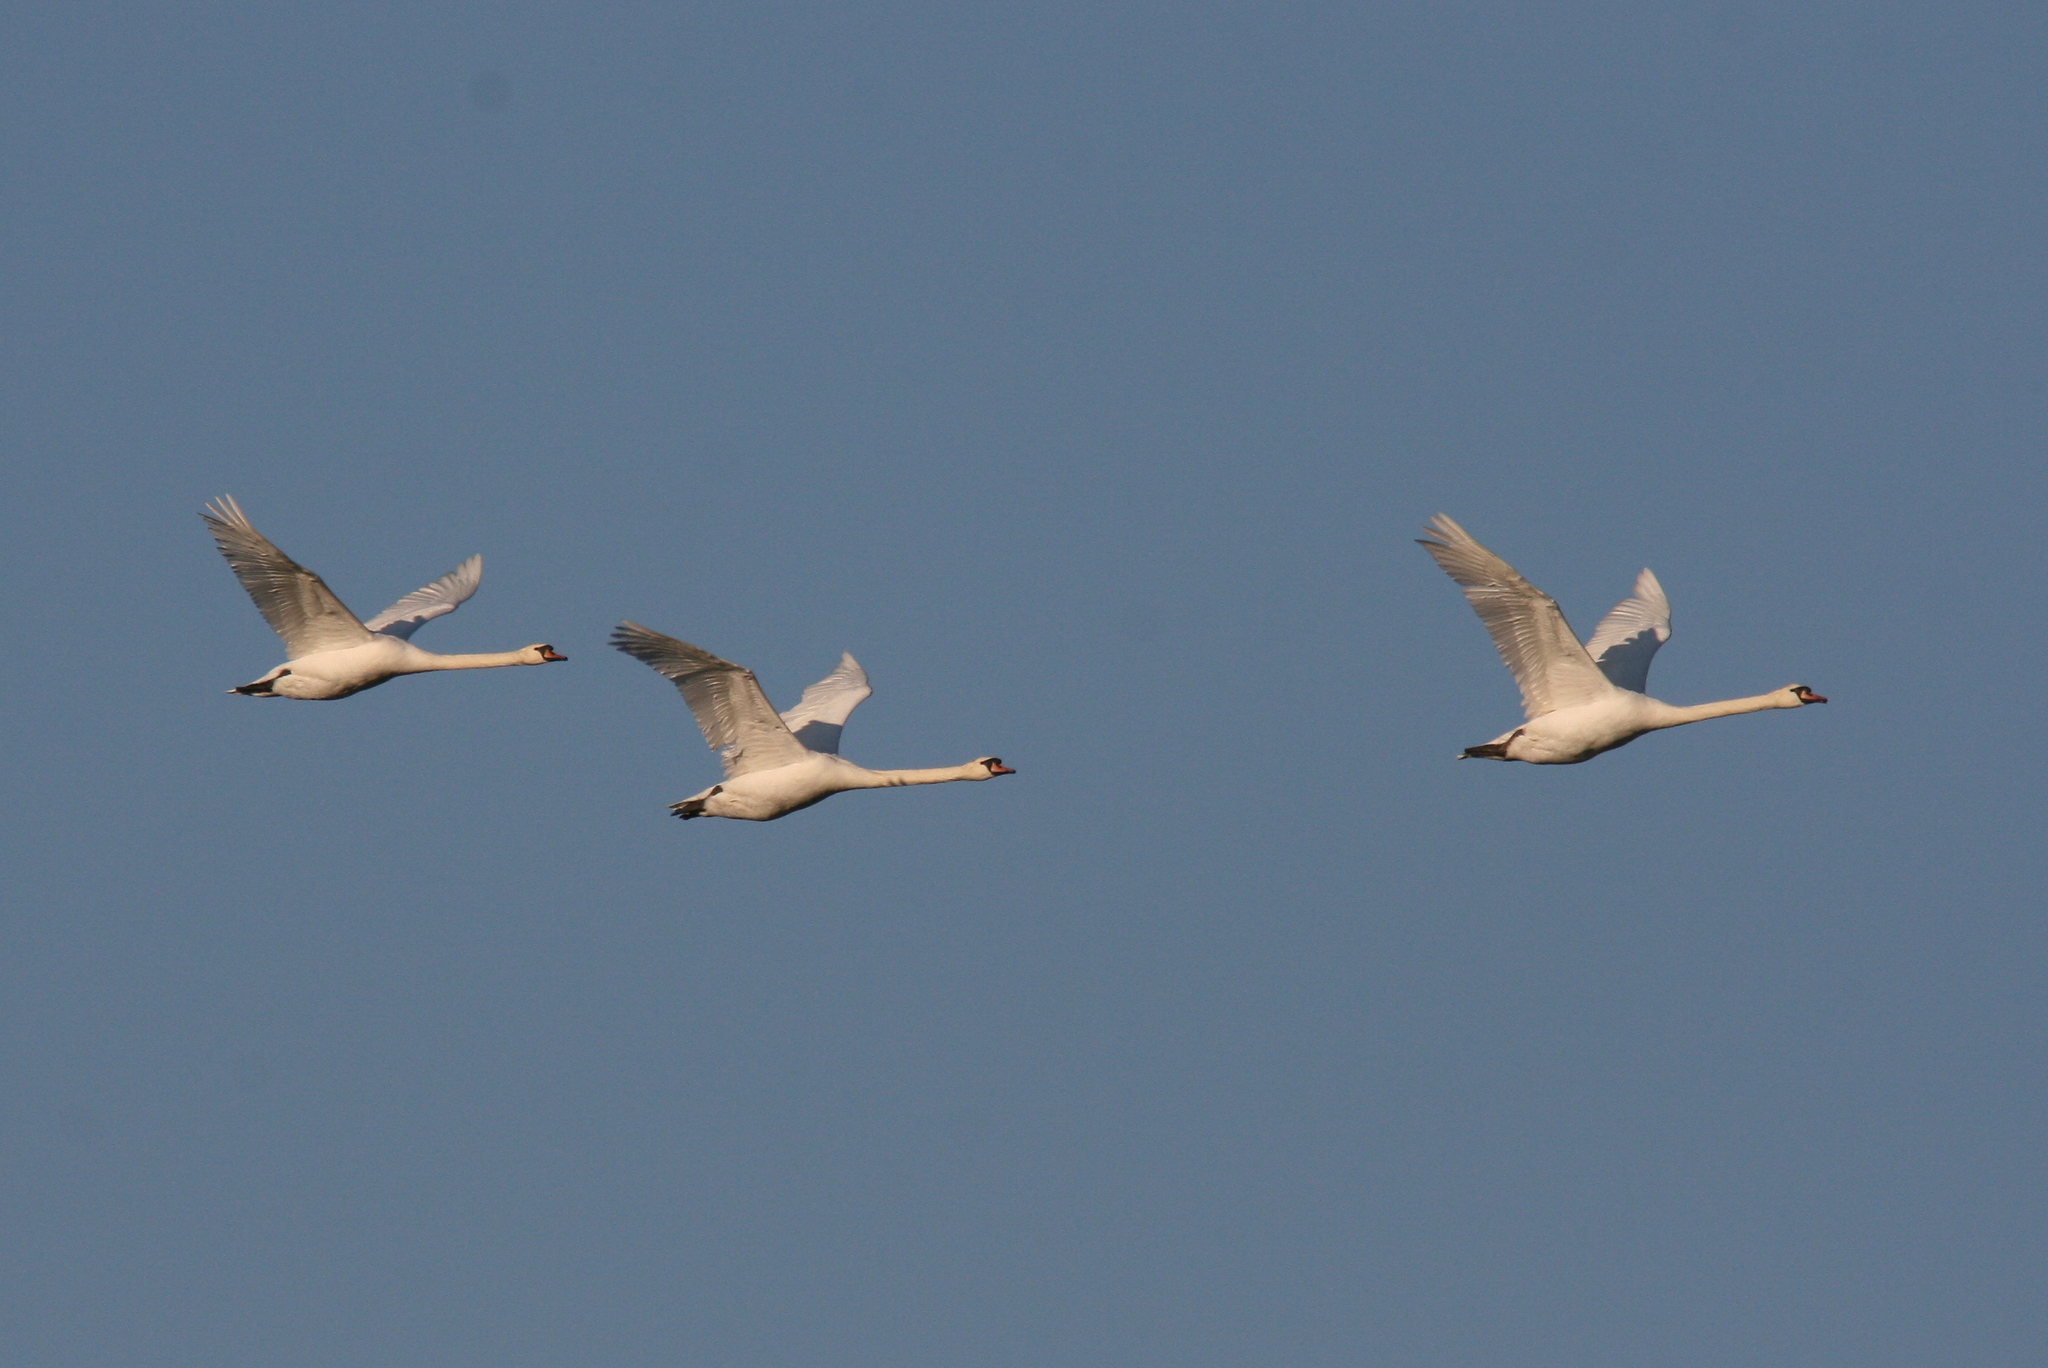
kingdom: Animalia
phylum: Chordata
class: Aves
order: Anseriformes
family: Anatidae
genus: Cygnus
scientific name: Cygnus olor
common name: Mute swan
